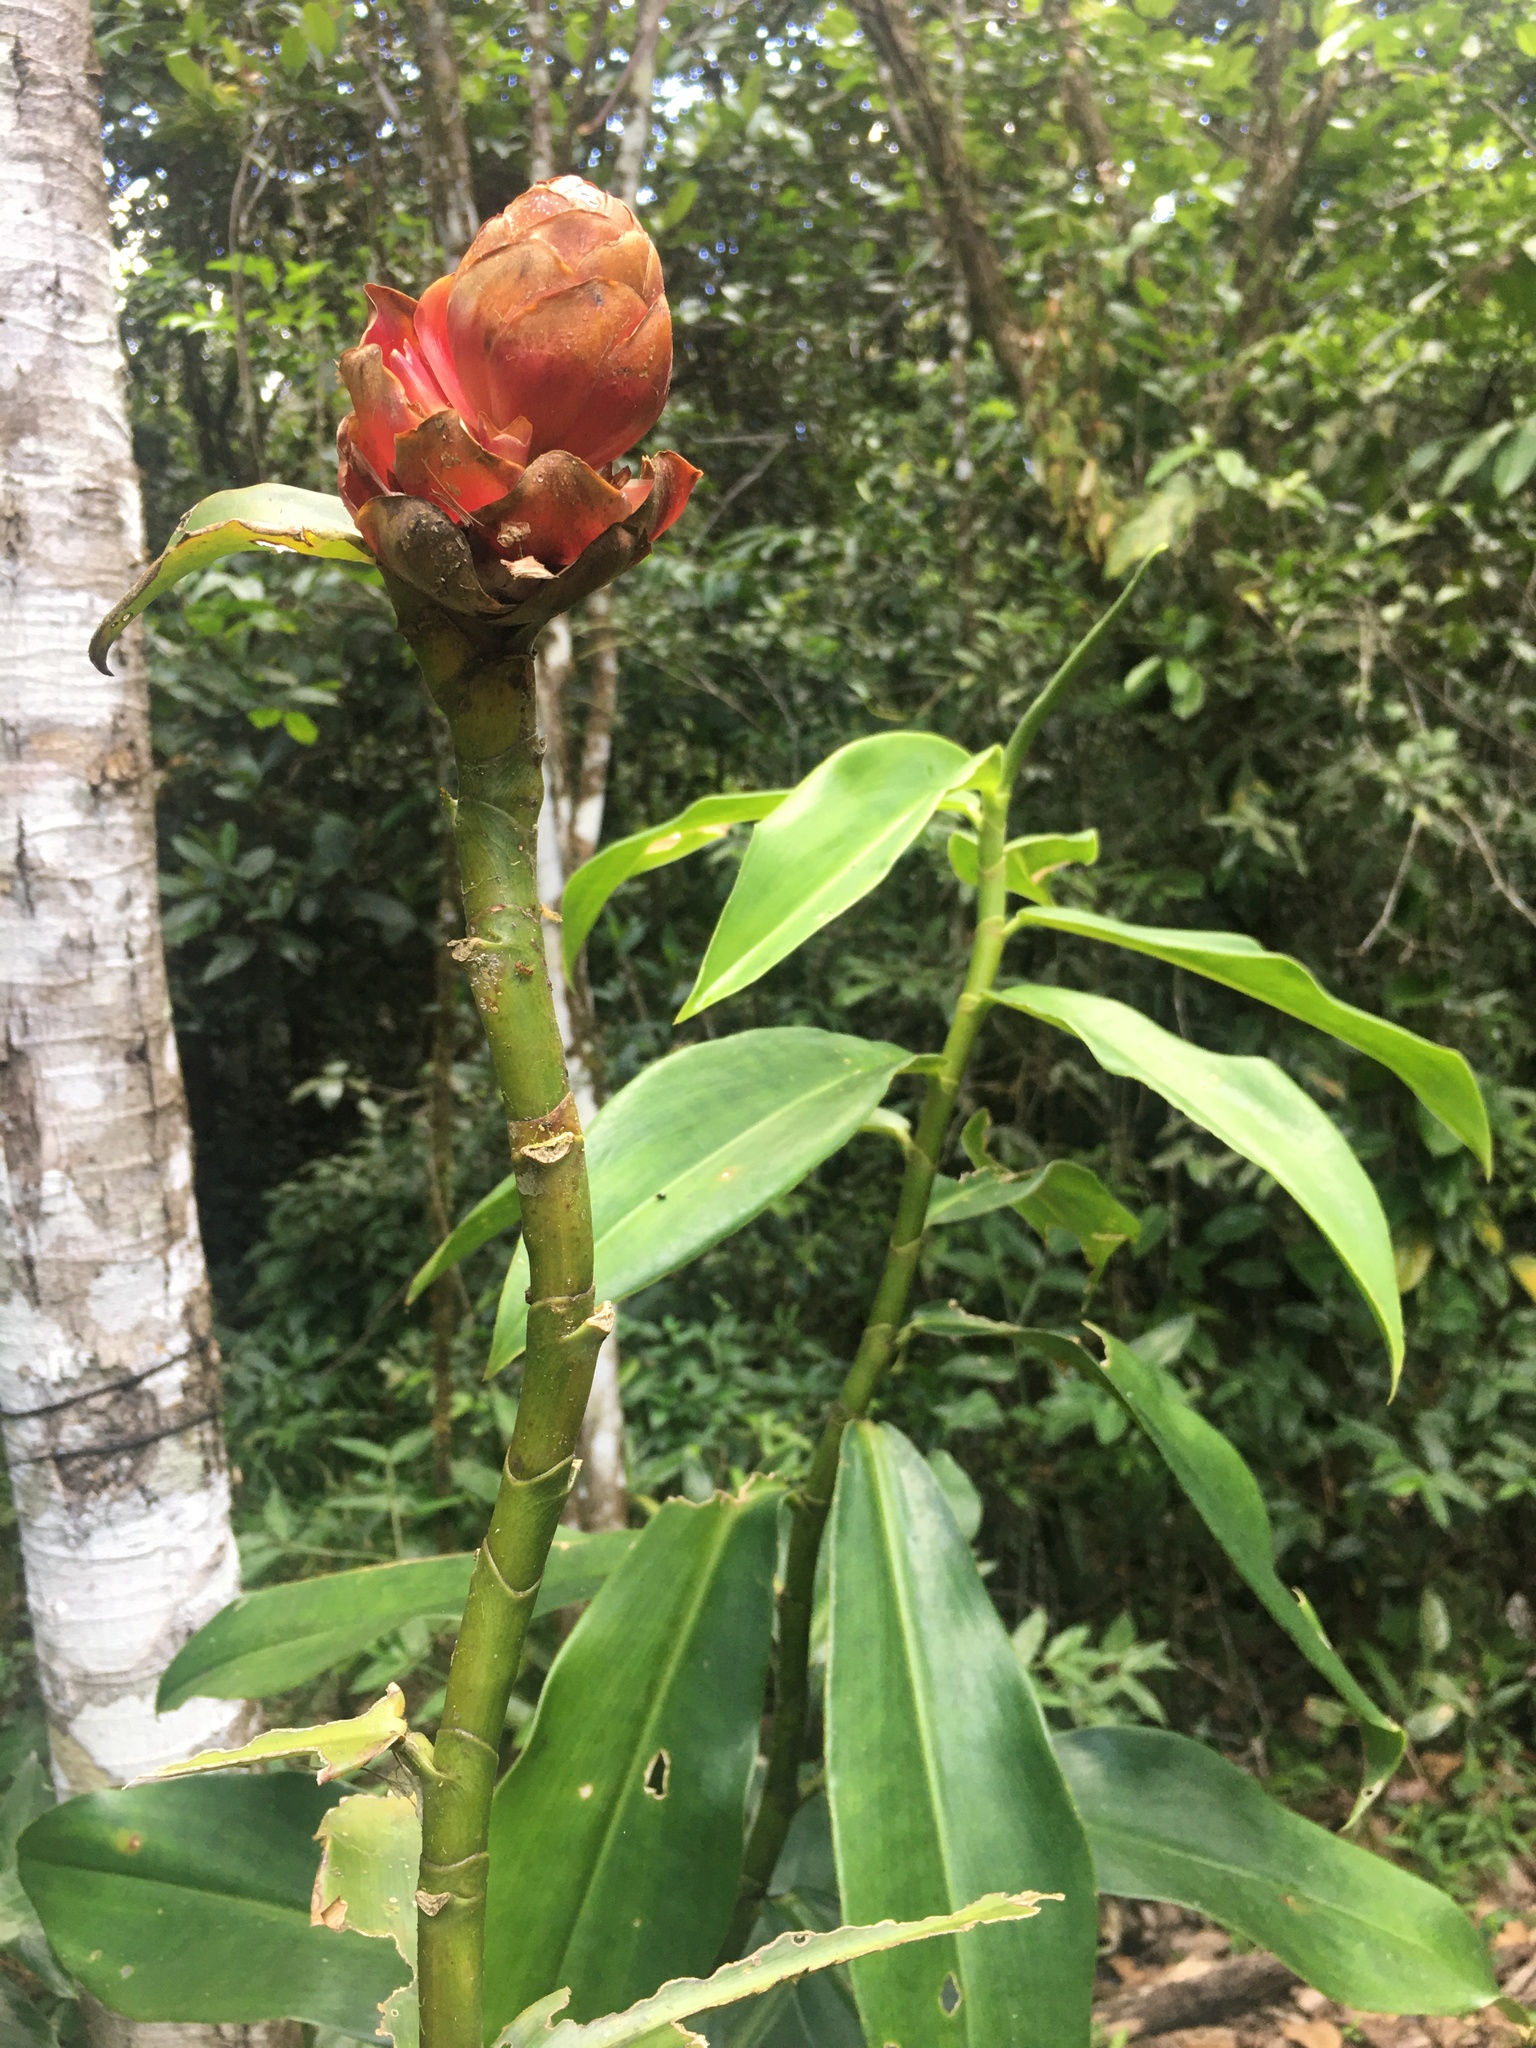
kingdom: Plantae
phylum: Tracheophyta
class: Liliopsida
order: Zingiberales
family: Costaceae
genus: Costus
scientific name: Costus
